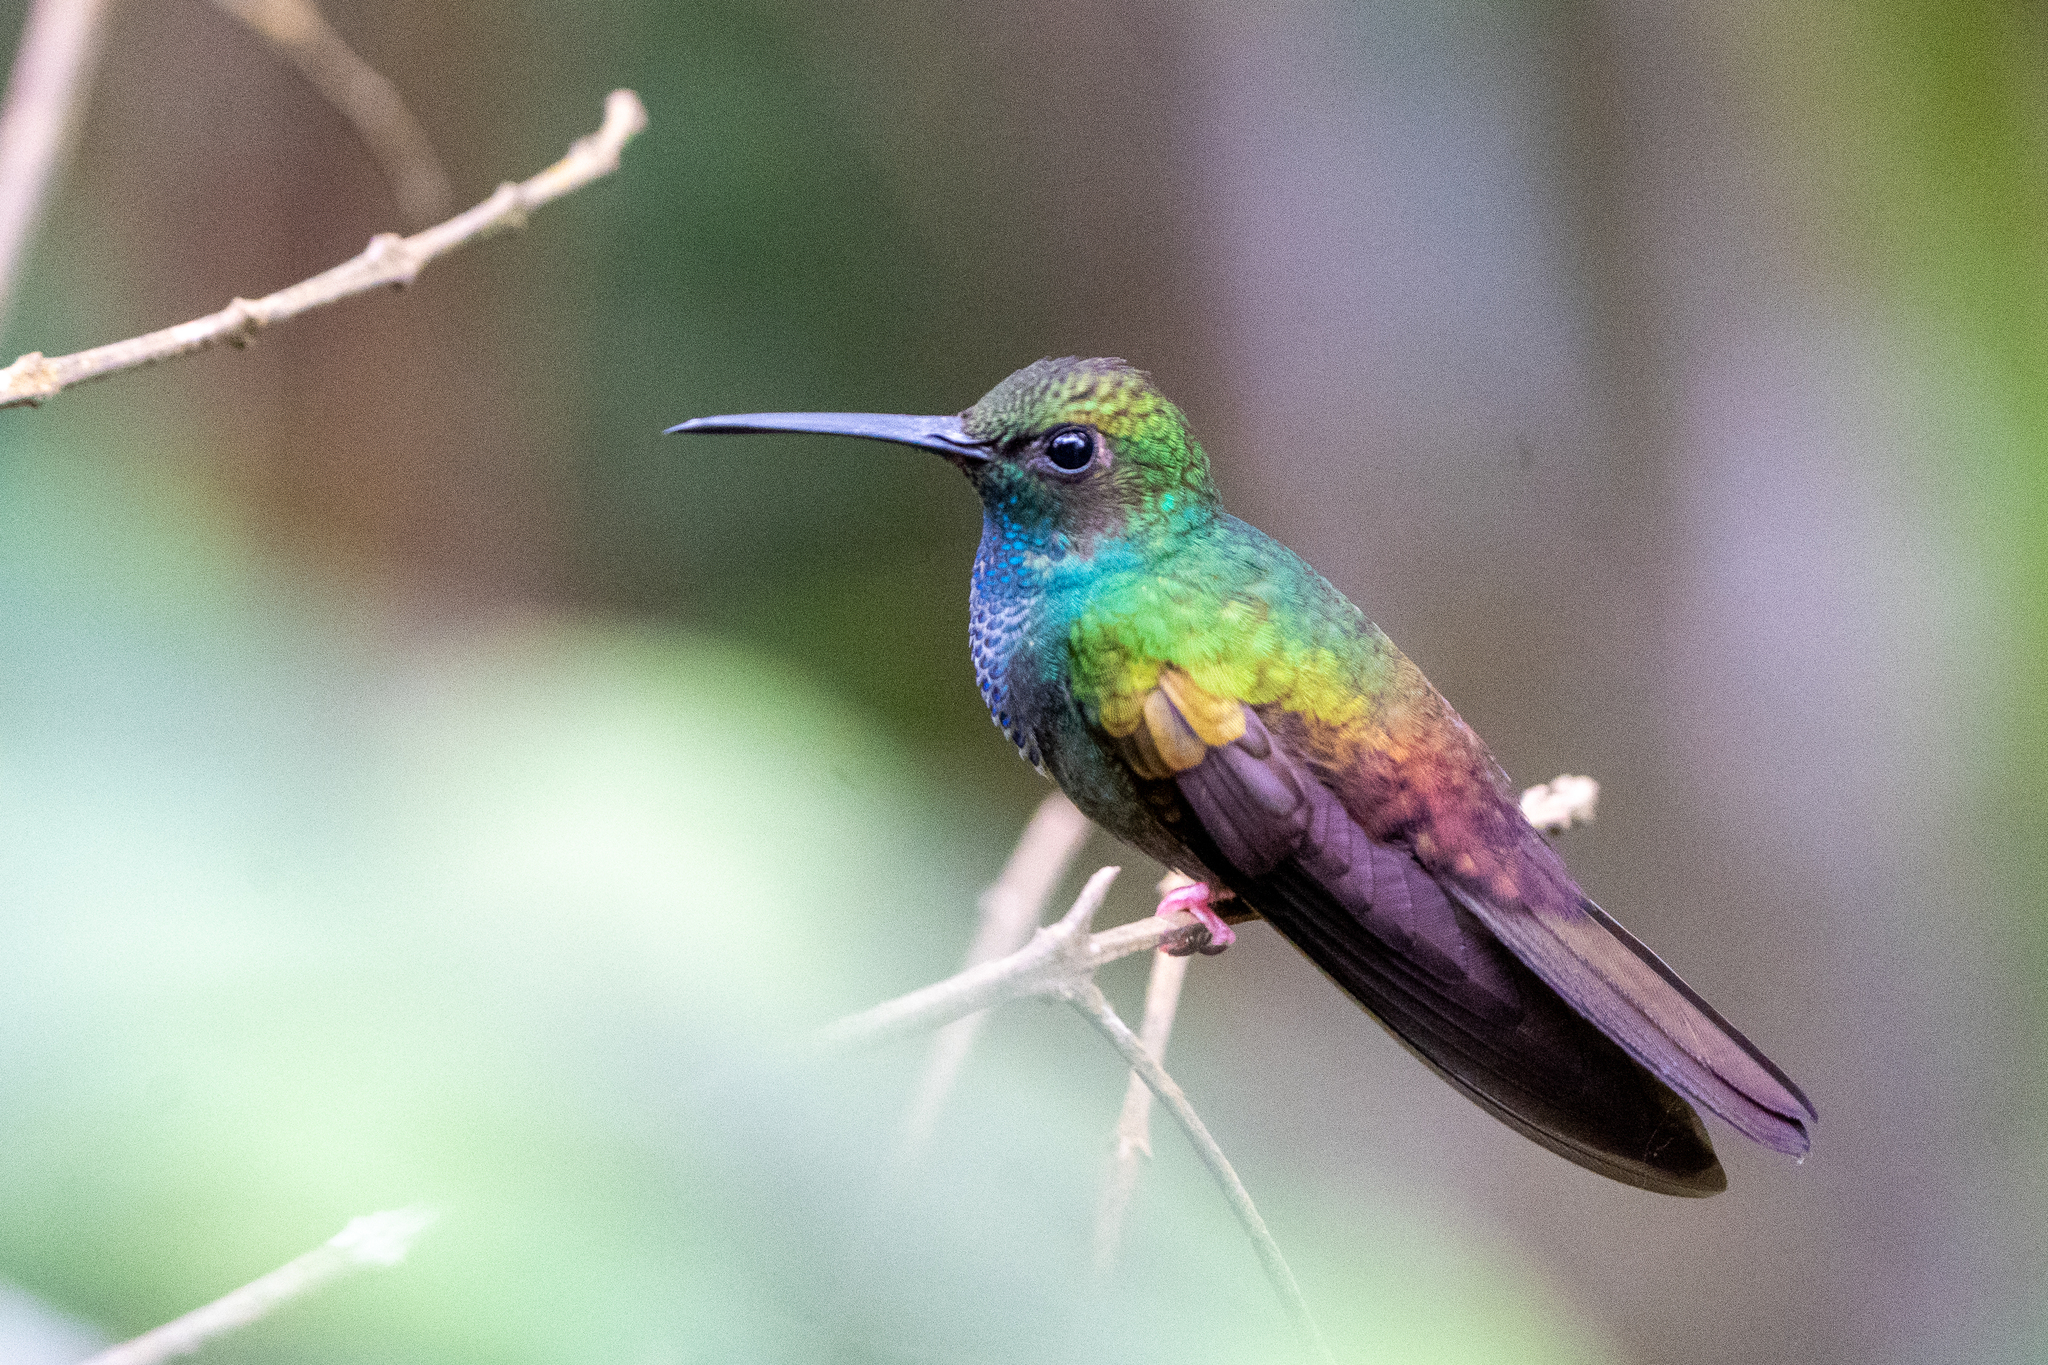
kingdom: Animalia
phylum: Chordata
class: Aves
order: Apodiformes
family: Trochilidae
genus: Chalybura
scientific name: Chalybura urochrysia
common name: Bronze-tailed plumeleteer
